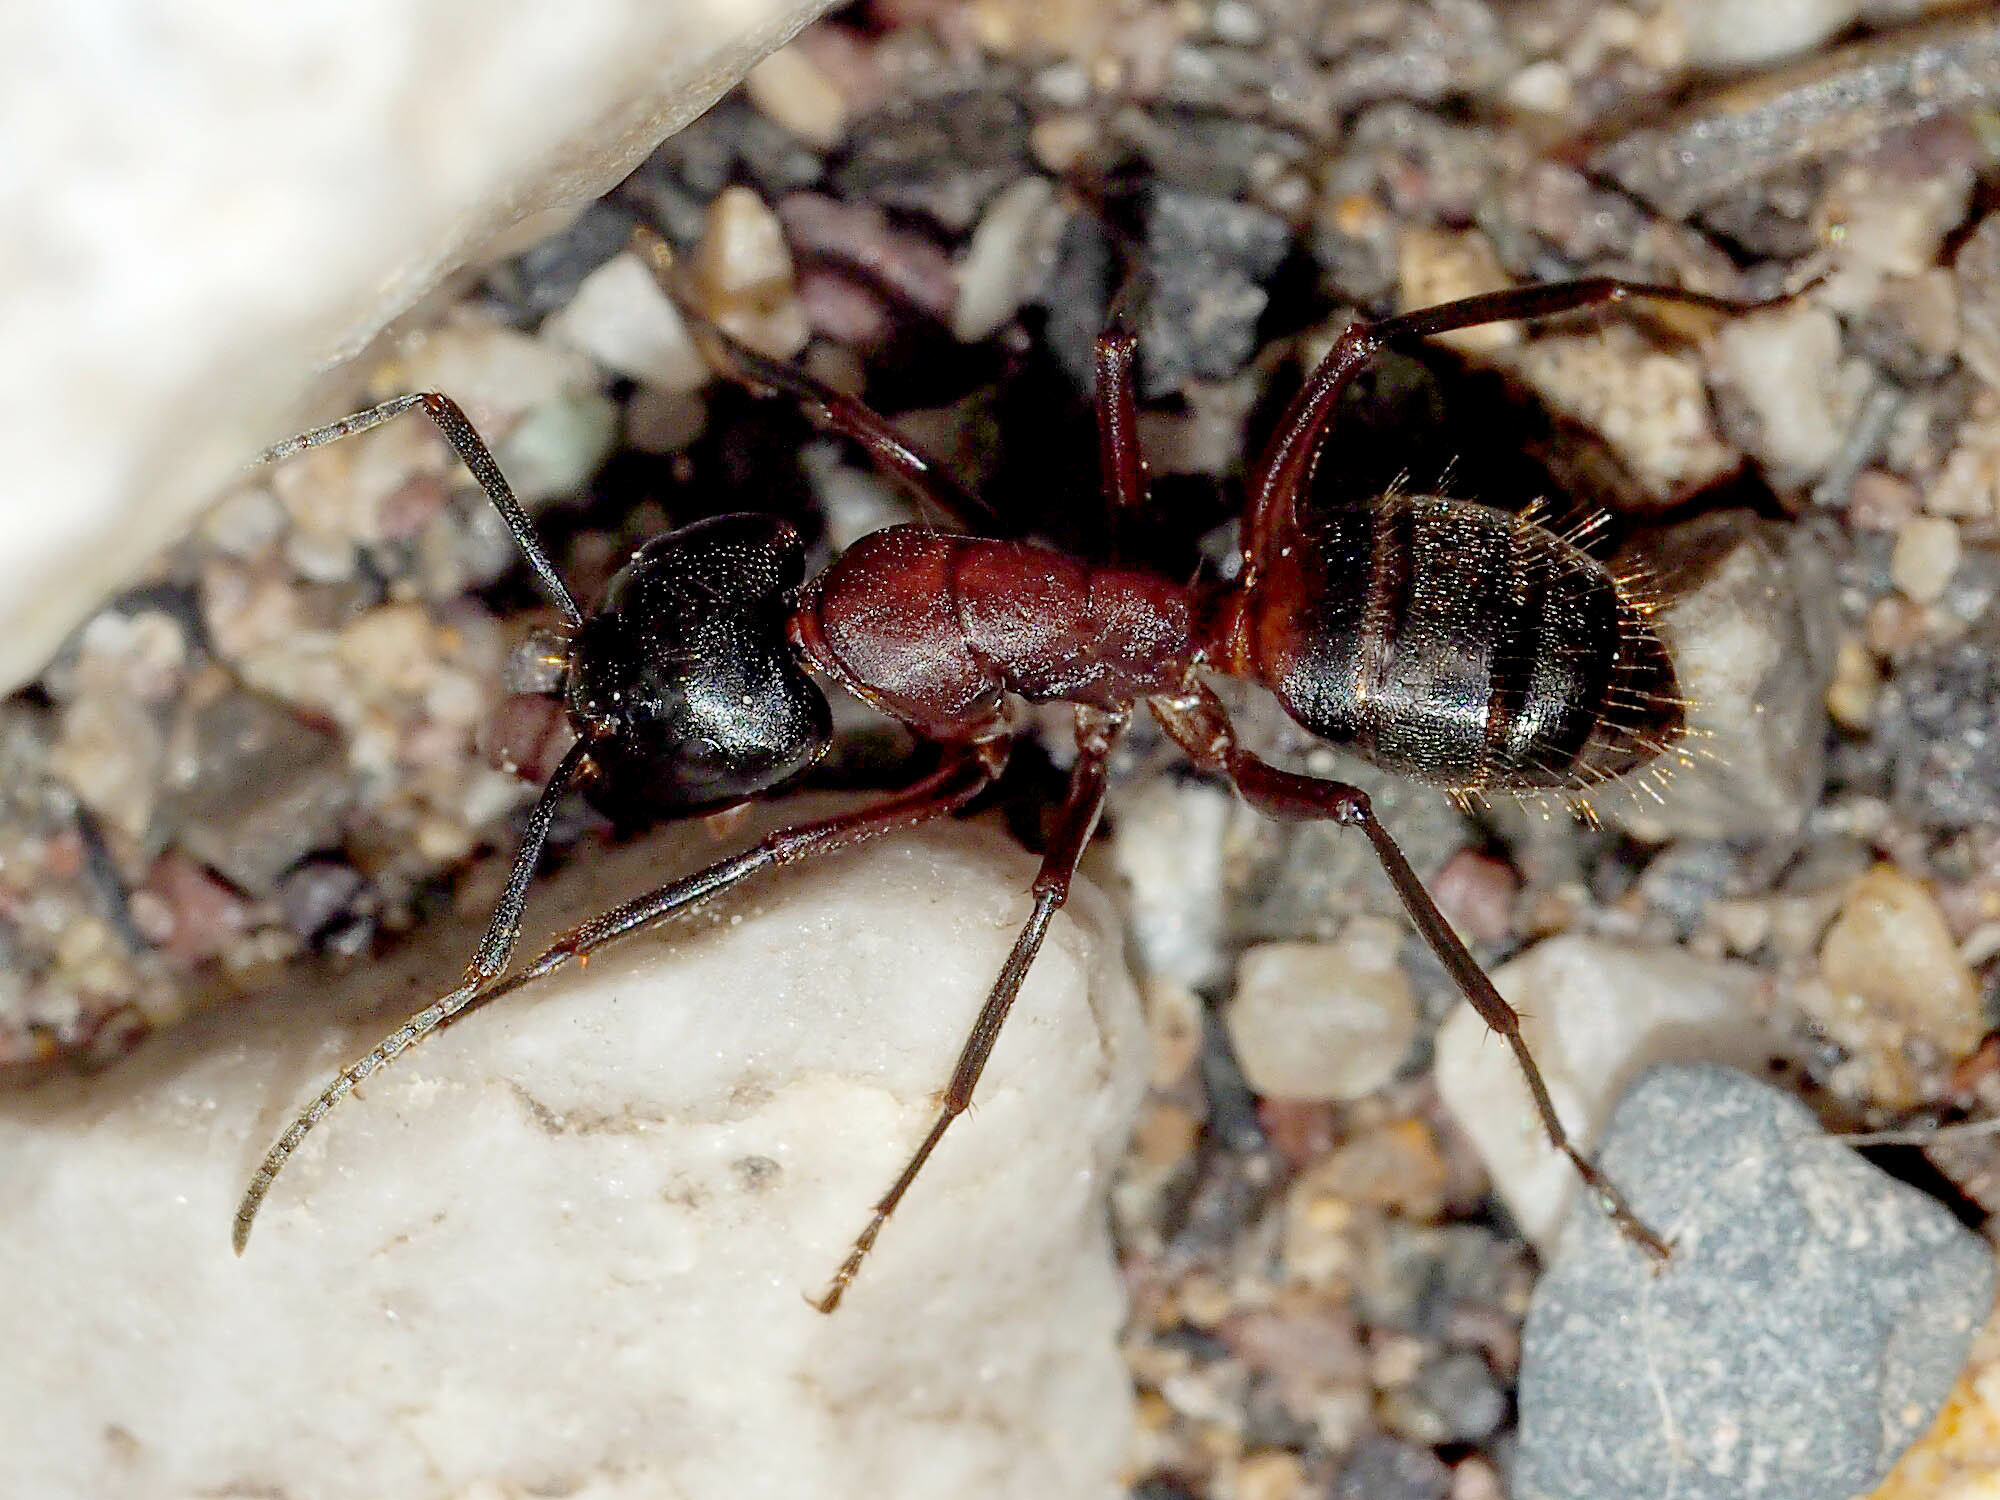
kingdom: Animalia
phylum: Arthropoda
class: Insecta
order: Hymenoptera
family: Formicidae
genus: Camponotus
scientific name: Camponotus ligniperdus
